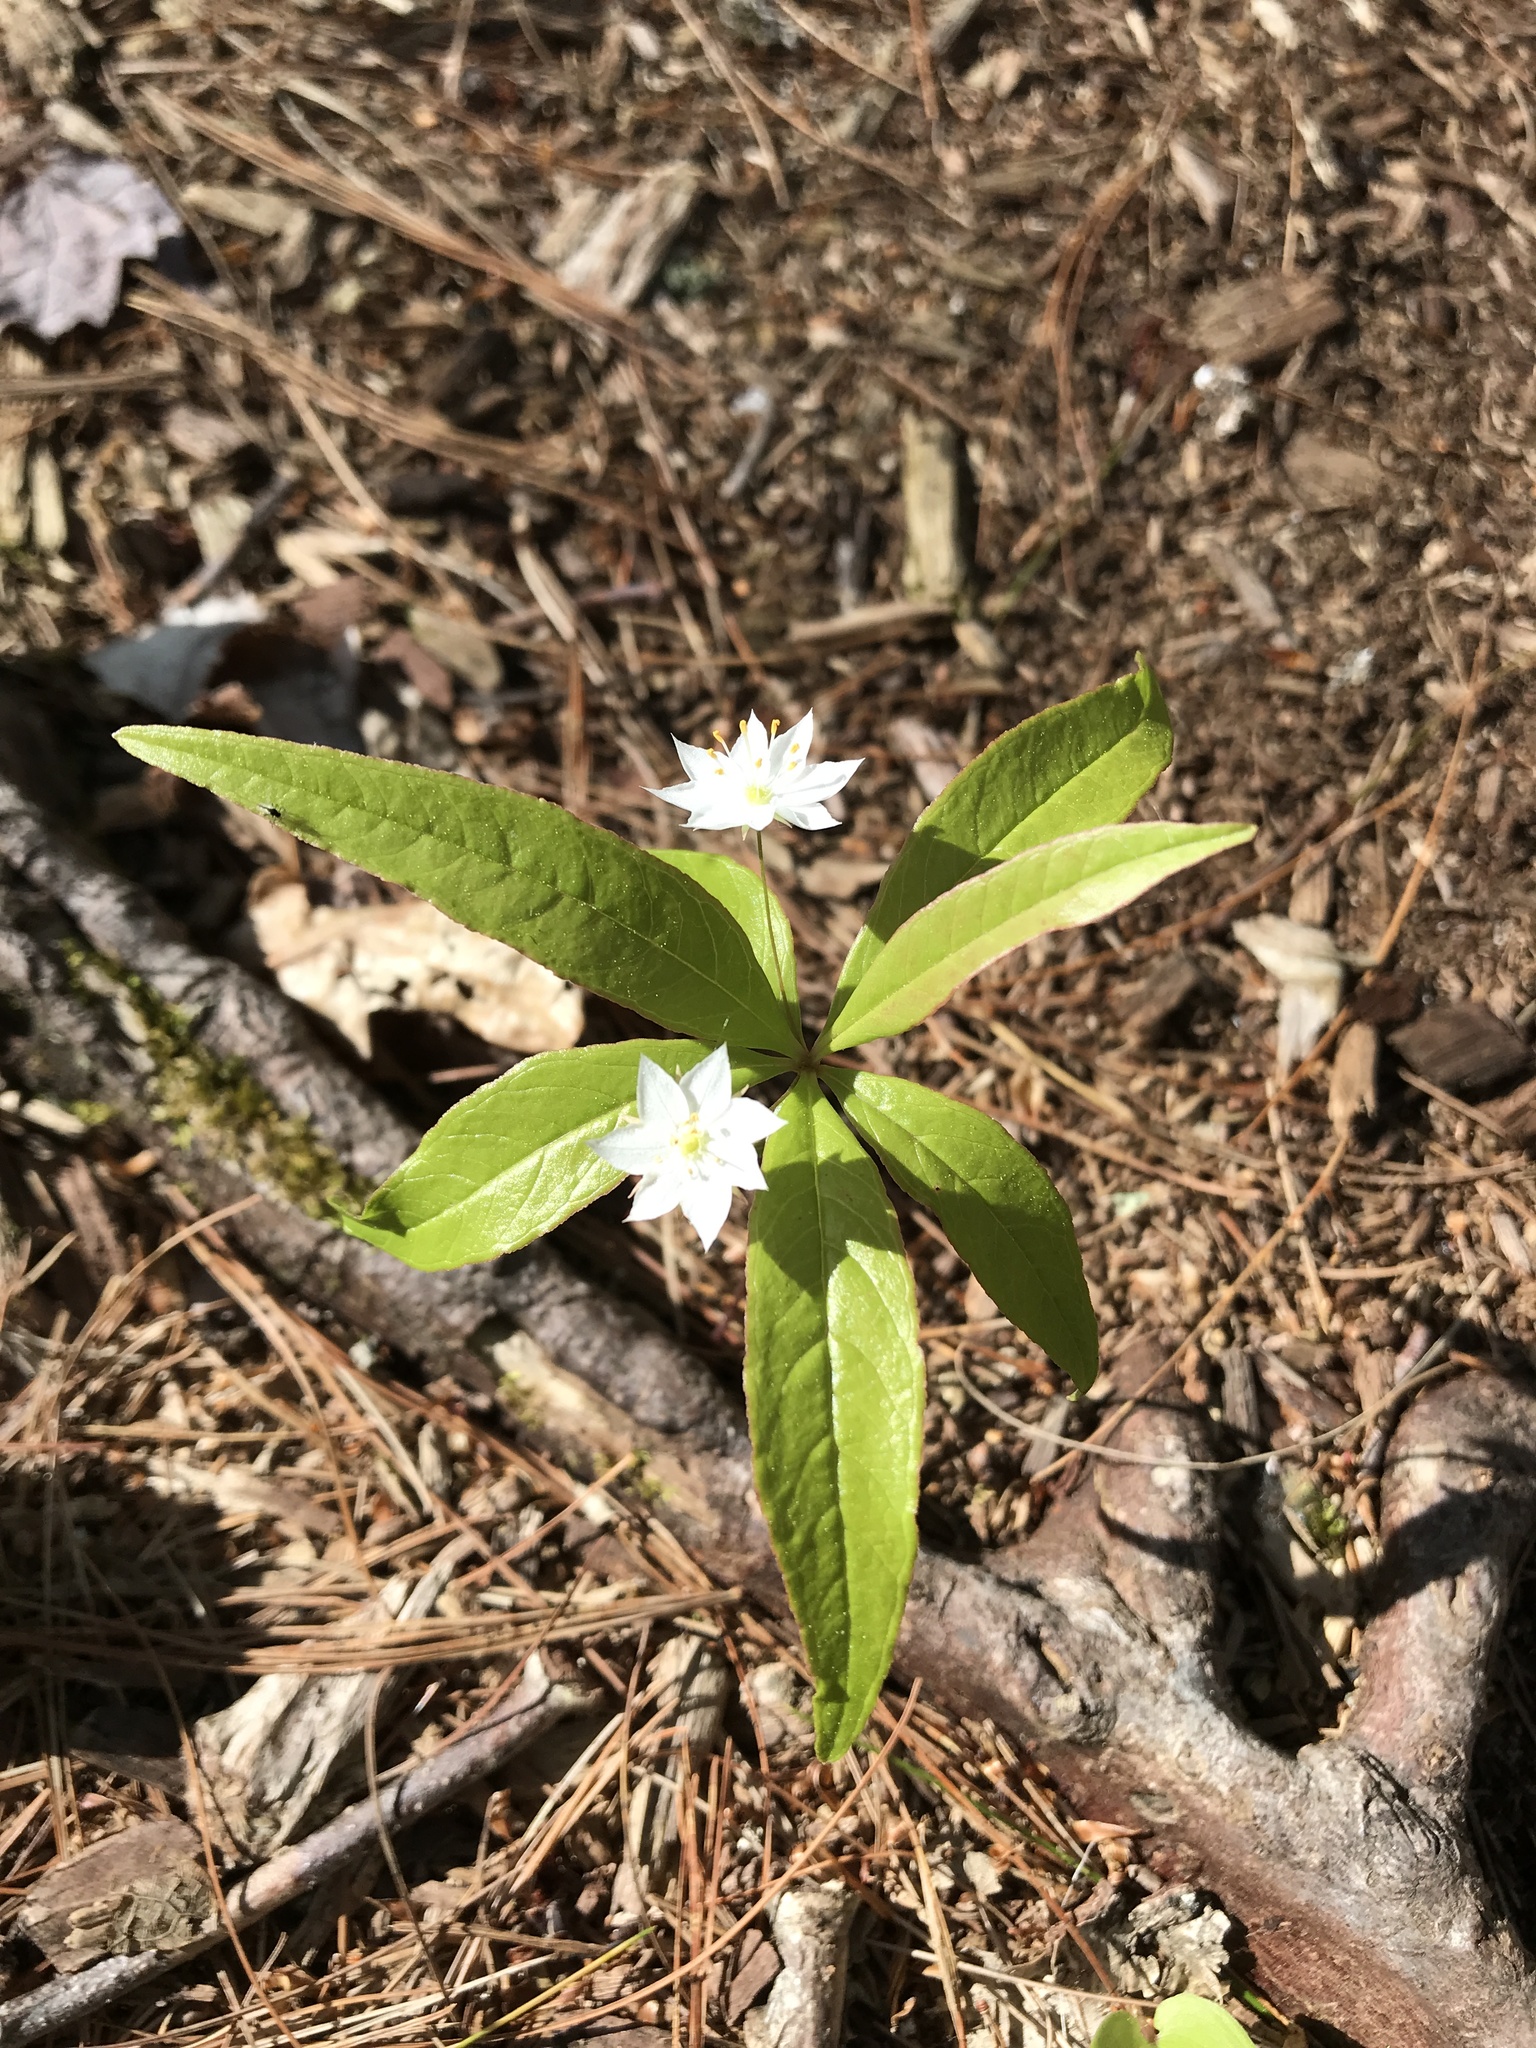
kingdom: Plantae
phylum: Tracheophyta
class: Magnoliopsida
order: Ericales
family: Primulaceae
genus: Lysimachia
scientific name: Lysimachia borealis
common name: American starflower
